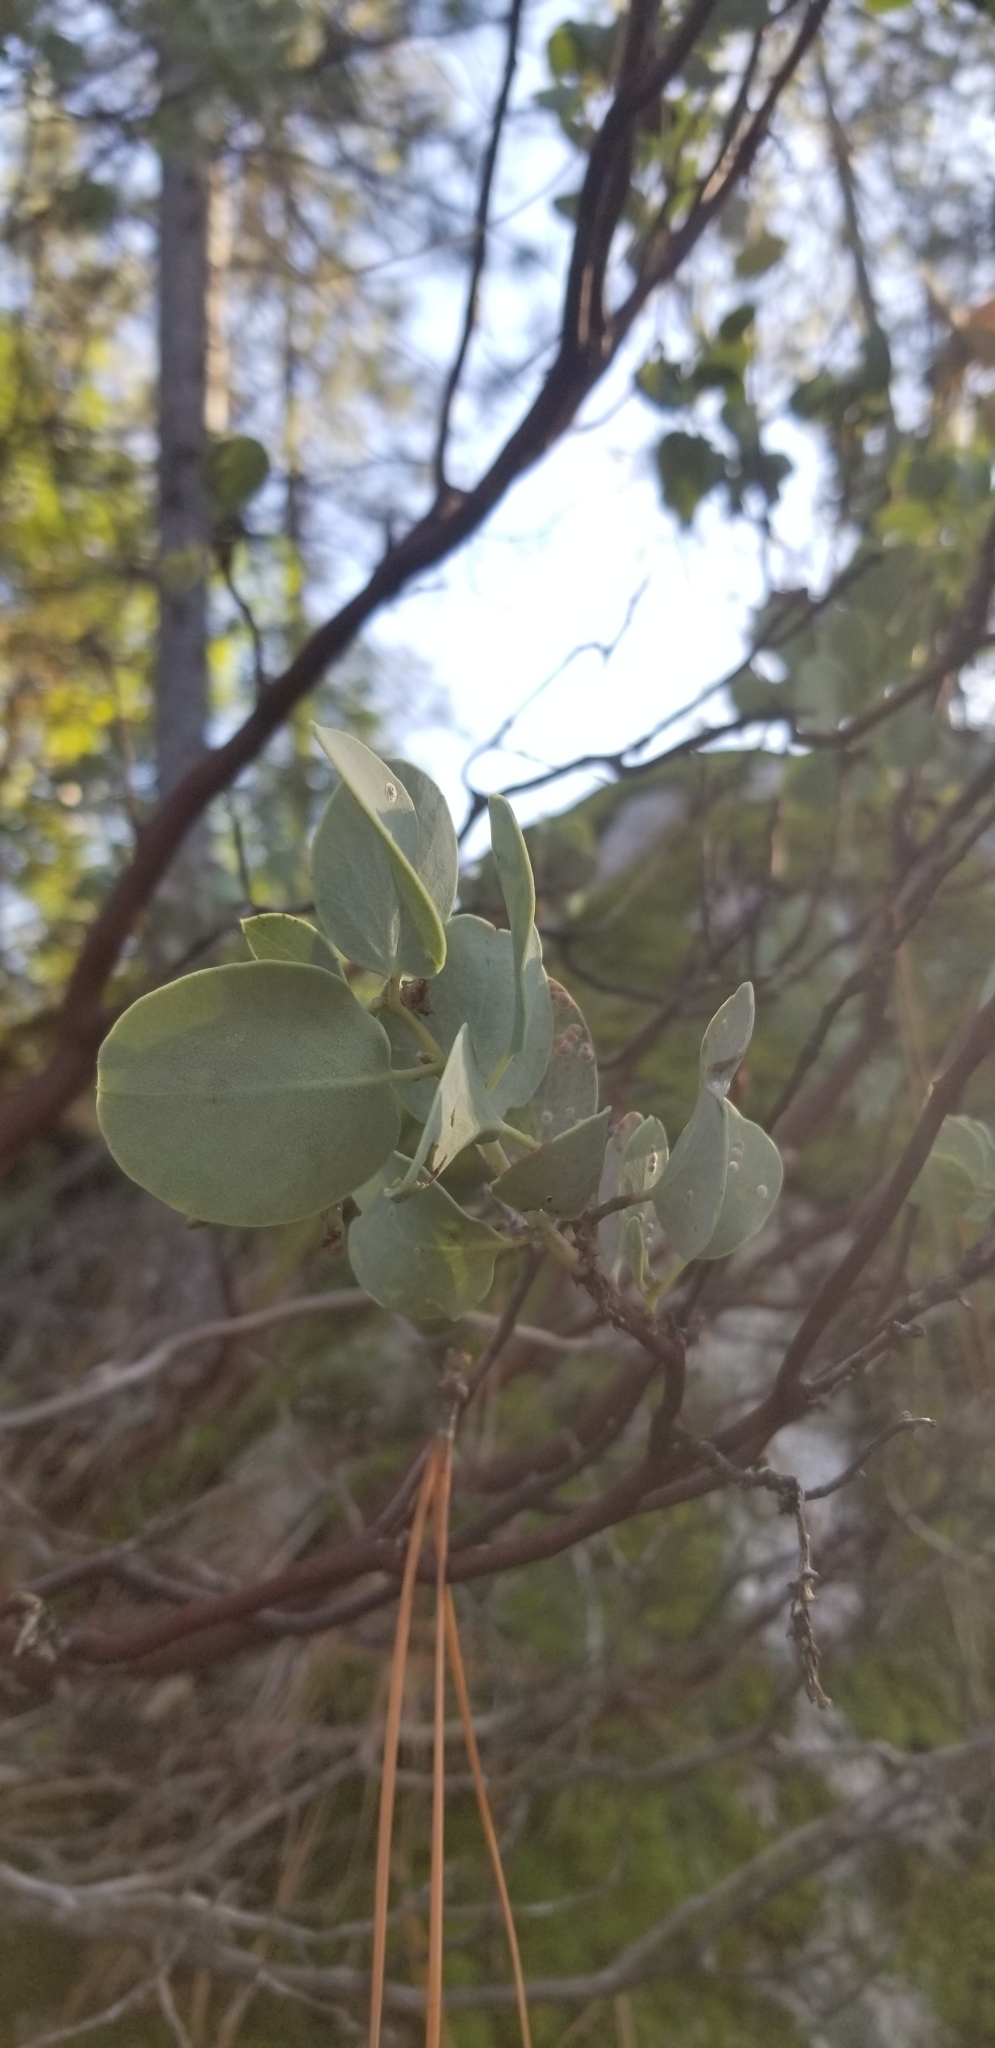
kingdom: Plantae
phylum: Tracheophyta
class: Magnoliopsida
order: Ericales
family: Ericaceae
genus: Arctostaphylos
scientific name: Arctostaphylos viscida
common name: White-leaf manzanita
